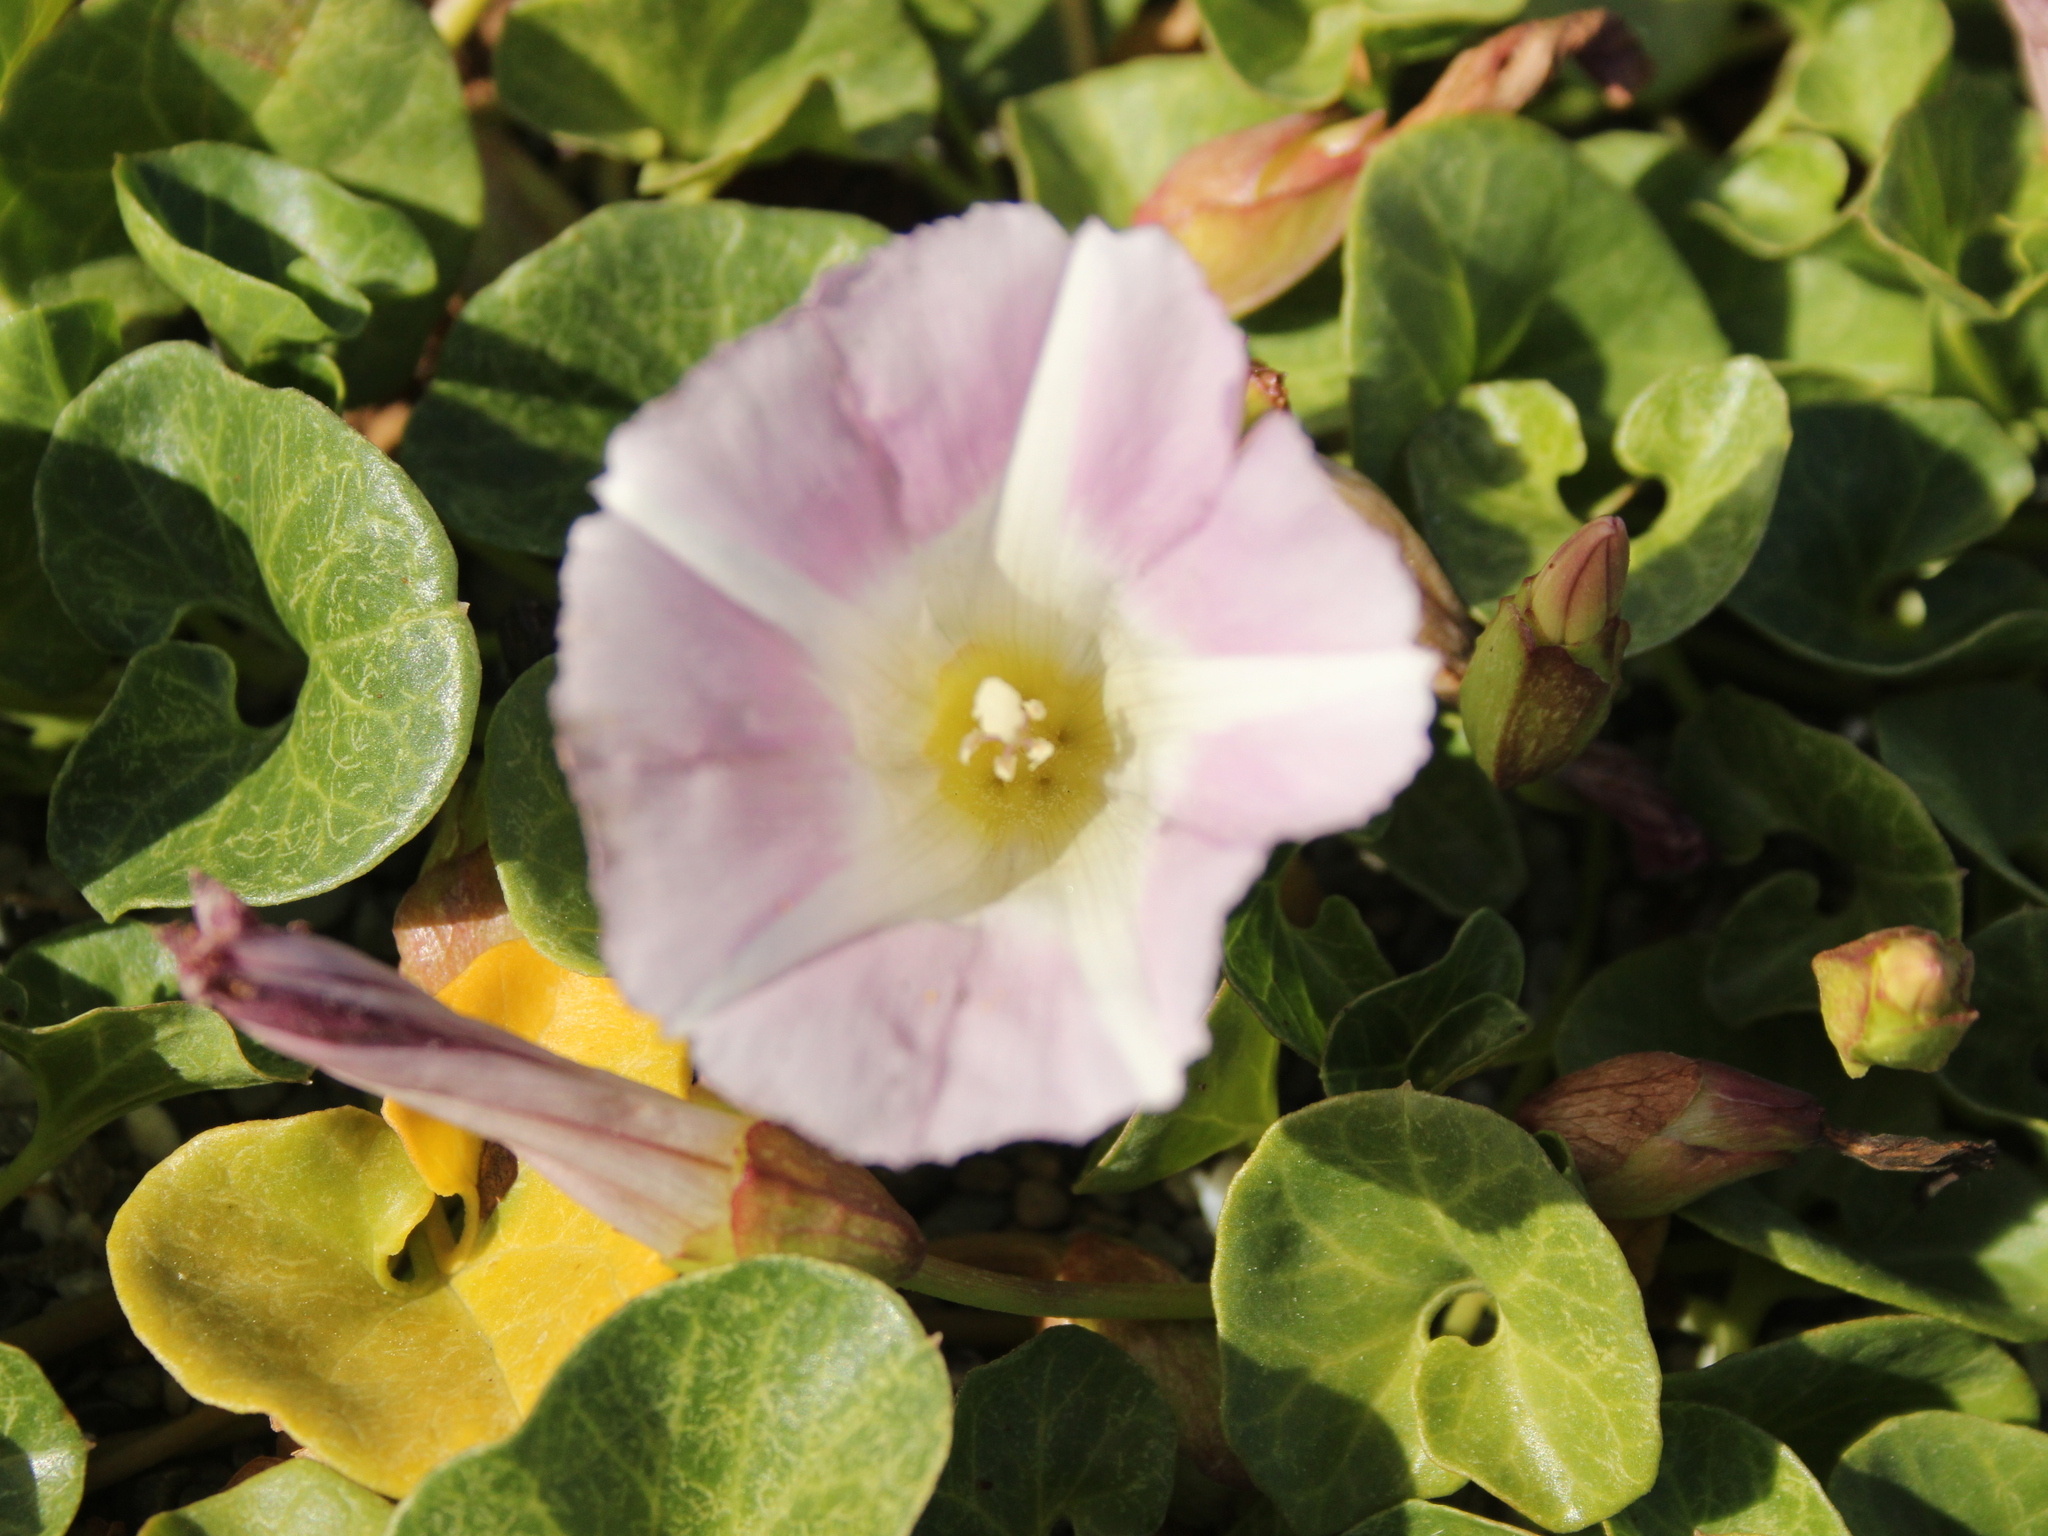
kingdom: Plantae
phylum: Tracheophyta
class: Magnoliopsida
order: Solanales
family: Convolvulaceae
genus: Calystegia
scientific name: Calystegia soldanella
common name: Sea bindweed
